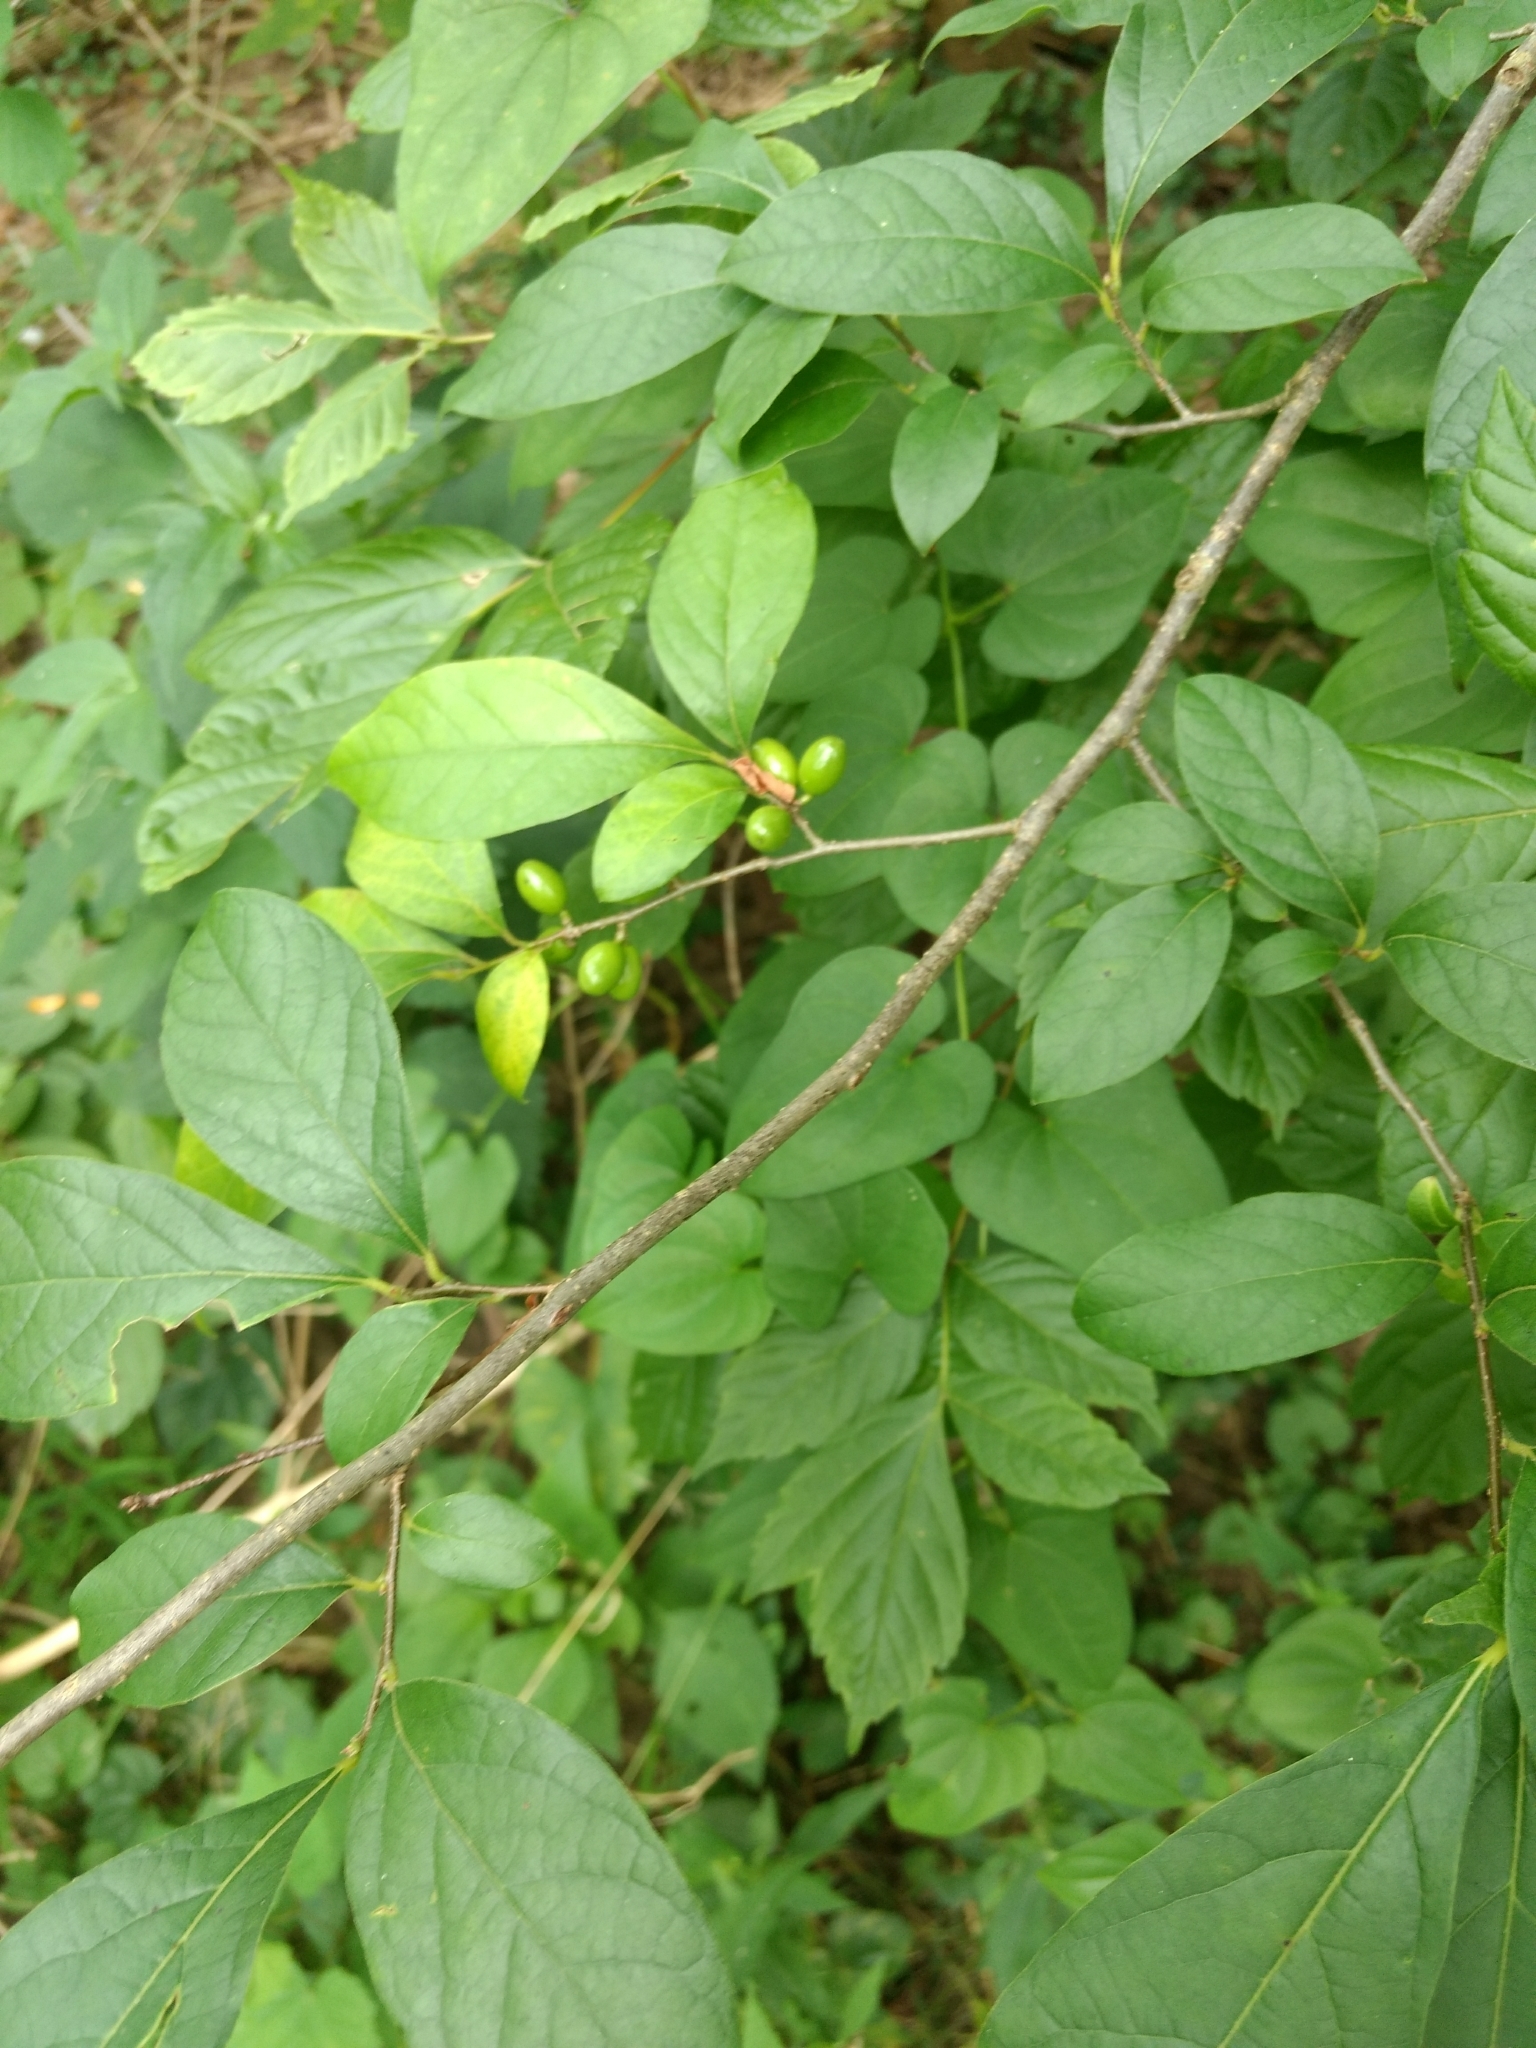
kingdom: Plantae
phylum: Tracheophyta
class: Magnoliopsida
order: Laurales
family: Lauraceae
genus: Lindera
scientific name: Lindera benzoin
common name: Spicebush
